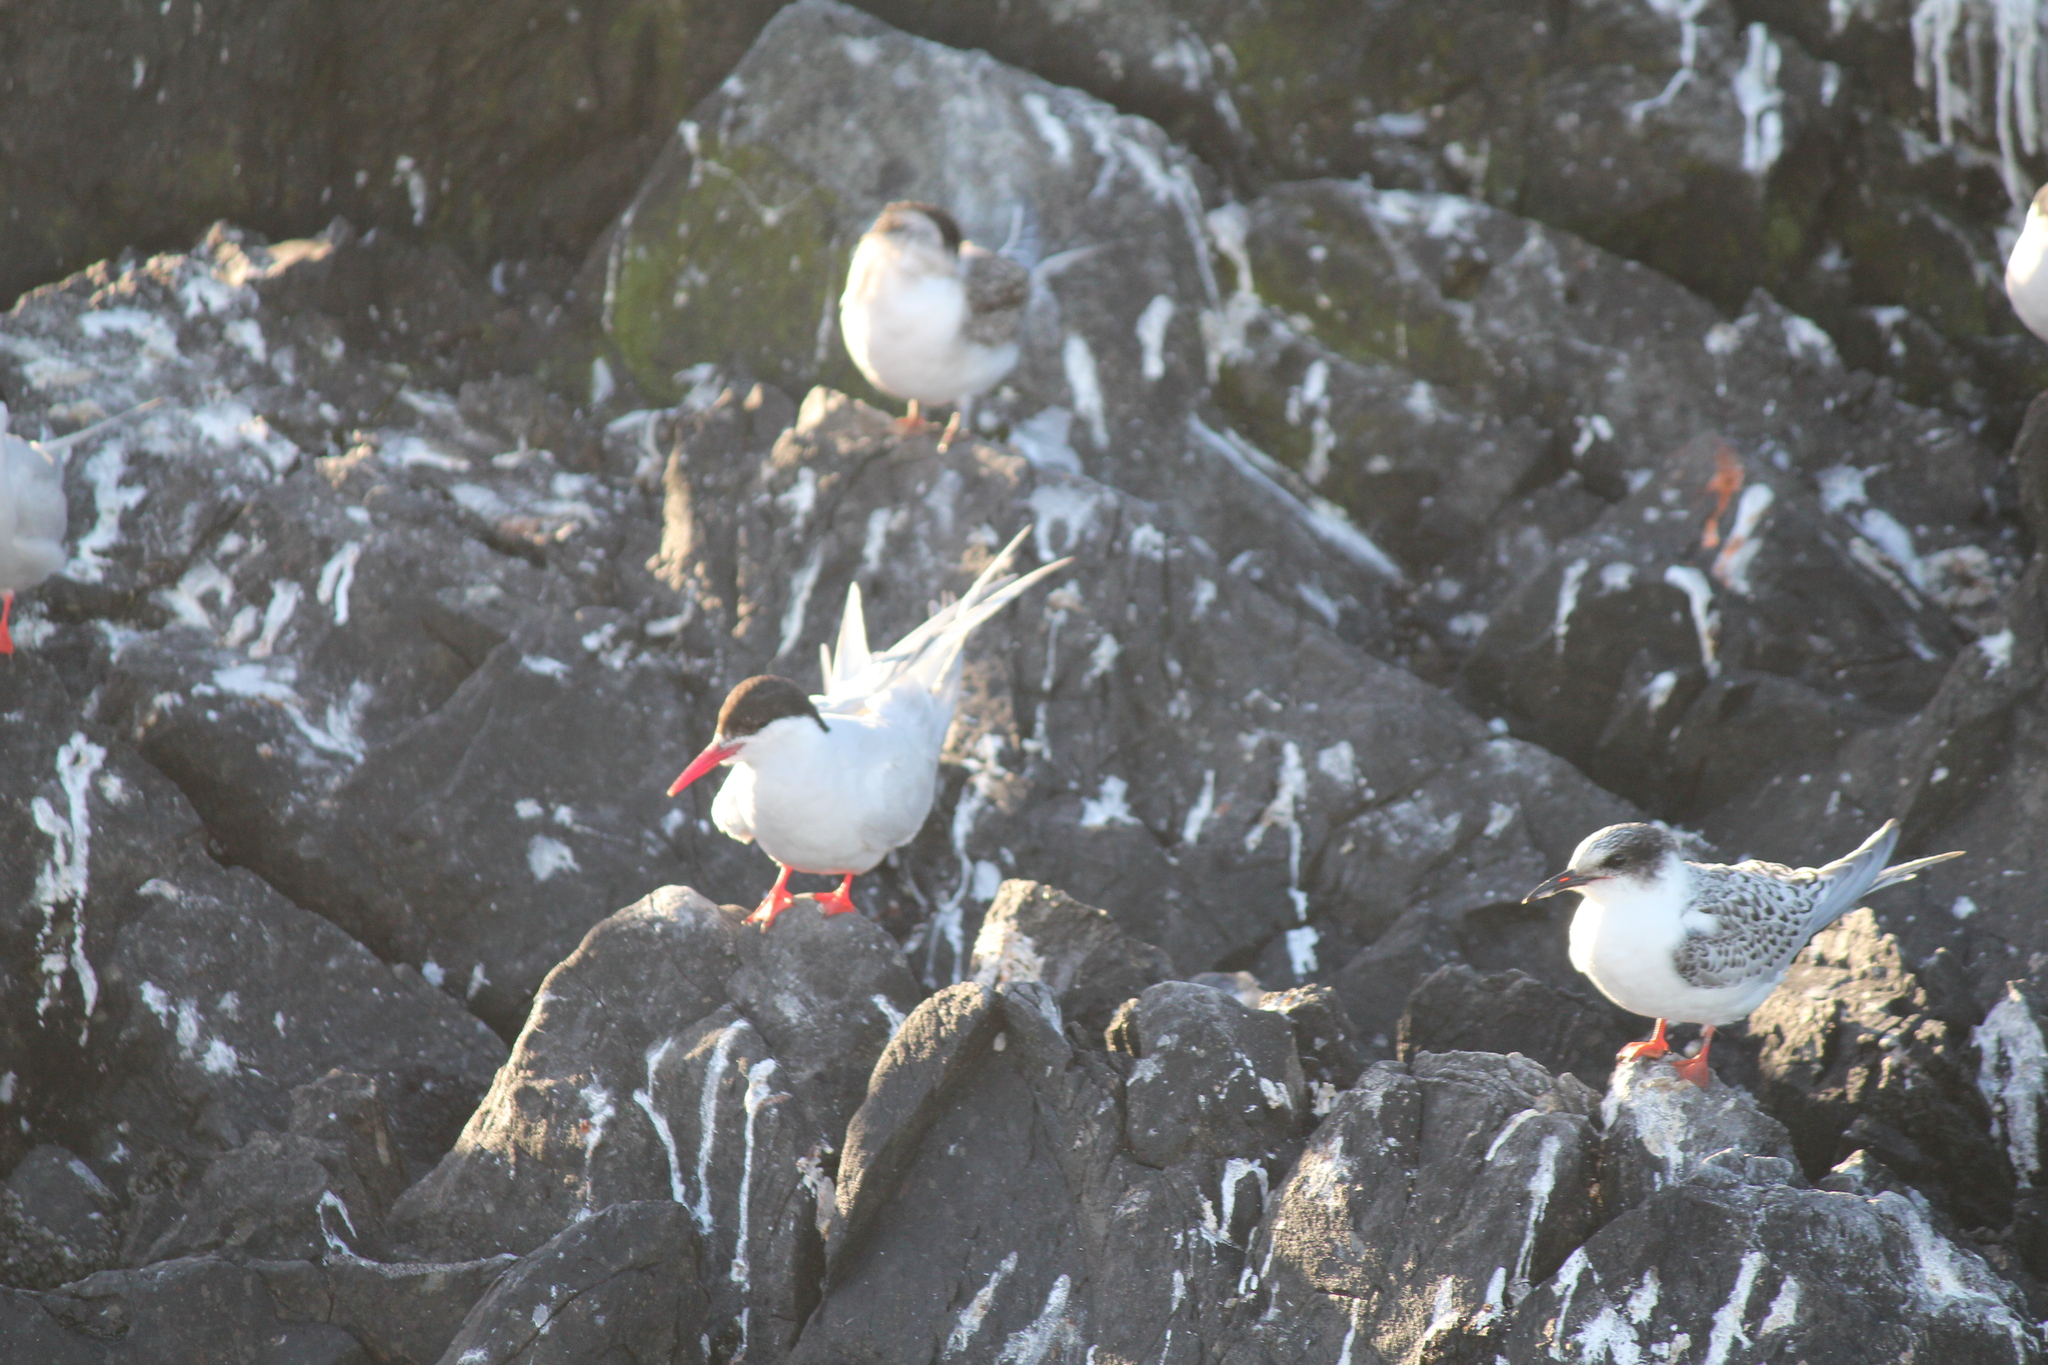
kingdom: Animalia
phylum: Chordata
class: Aves
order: Charadriiformes
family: Laridae
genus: Sterna
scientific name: Sterna hirundinacea
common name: South american tern
